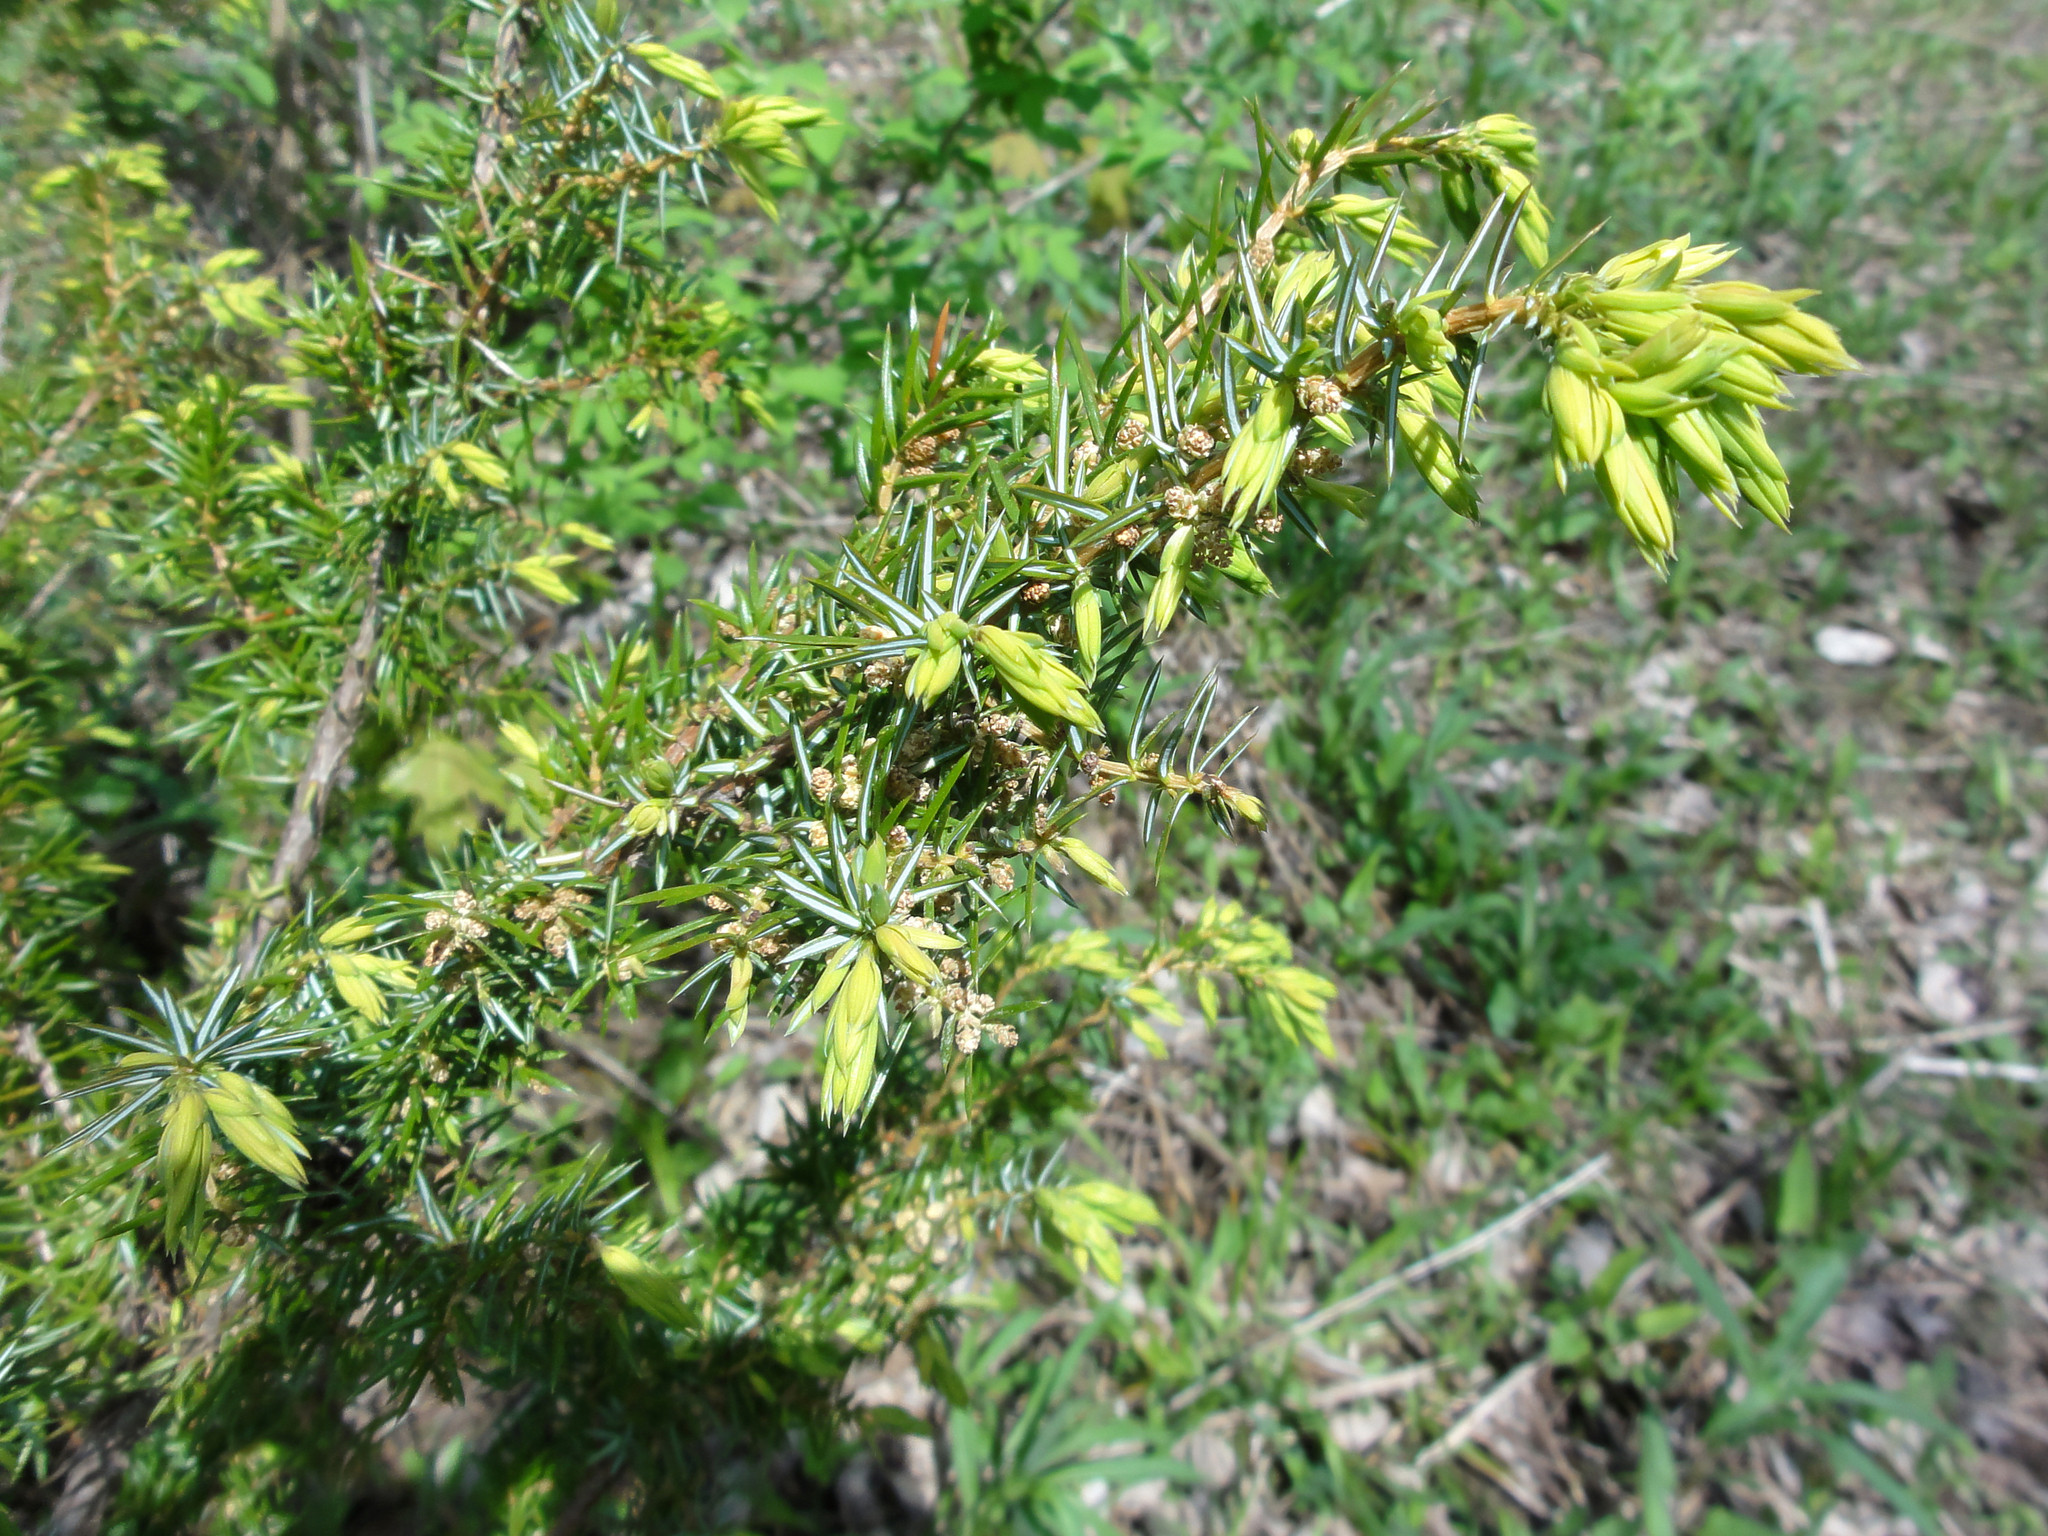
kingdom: Plantae
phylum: Tracheophyta
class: Pinopsida
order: Pinales
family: Cupressaceae
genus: Juniperus
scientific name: Juniperus communis
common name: Common juniper
